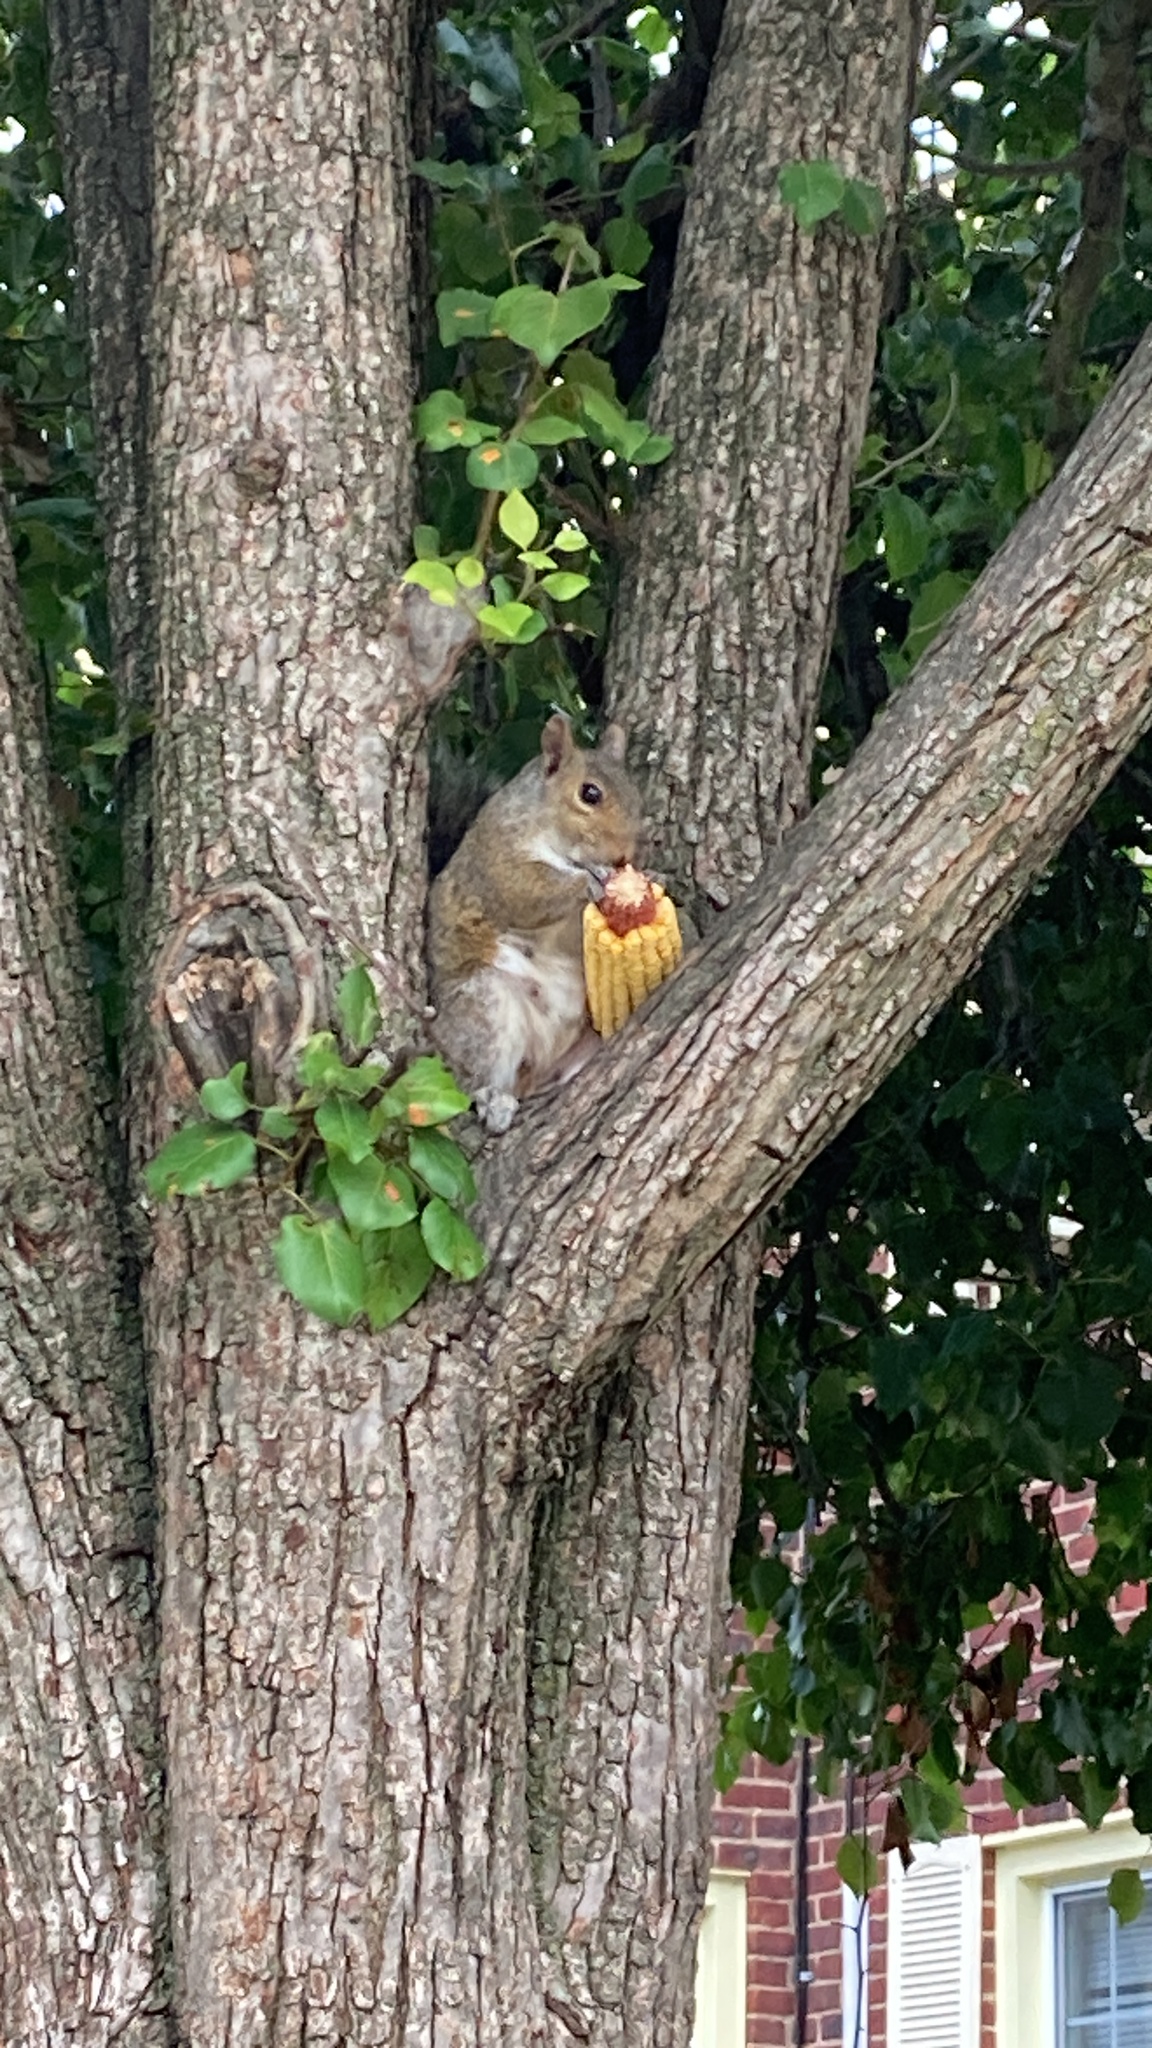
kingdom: Animalia
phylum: Chordata
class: Mammalia
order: Rodentia
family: Sciuridae
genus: Sciurus
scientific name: Sciurus carolinensis
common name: Eastern gray squirrel
